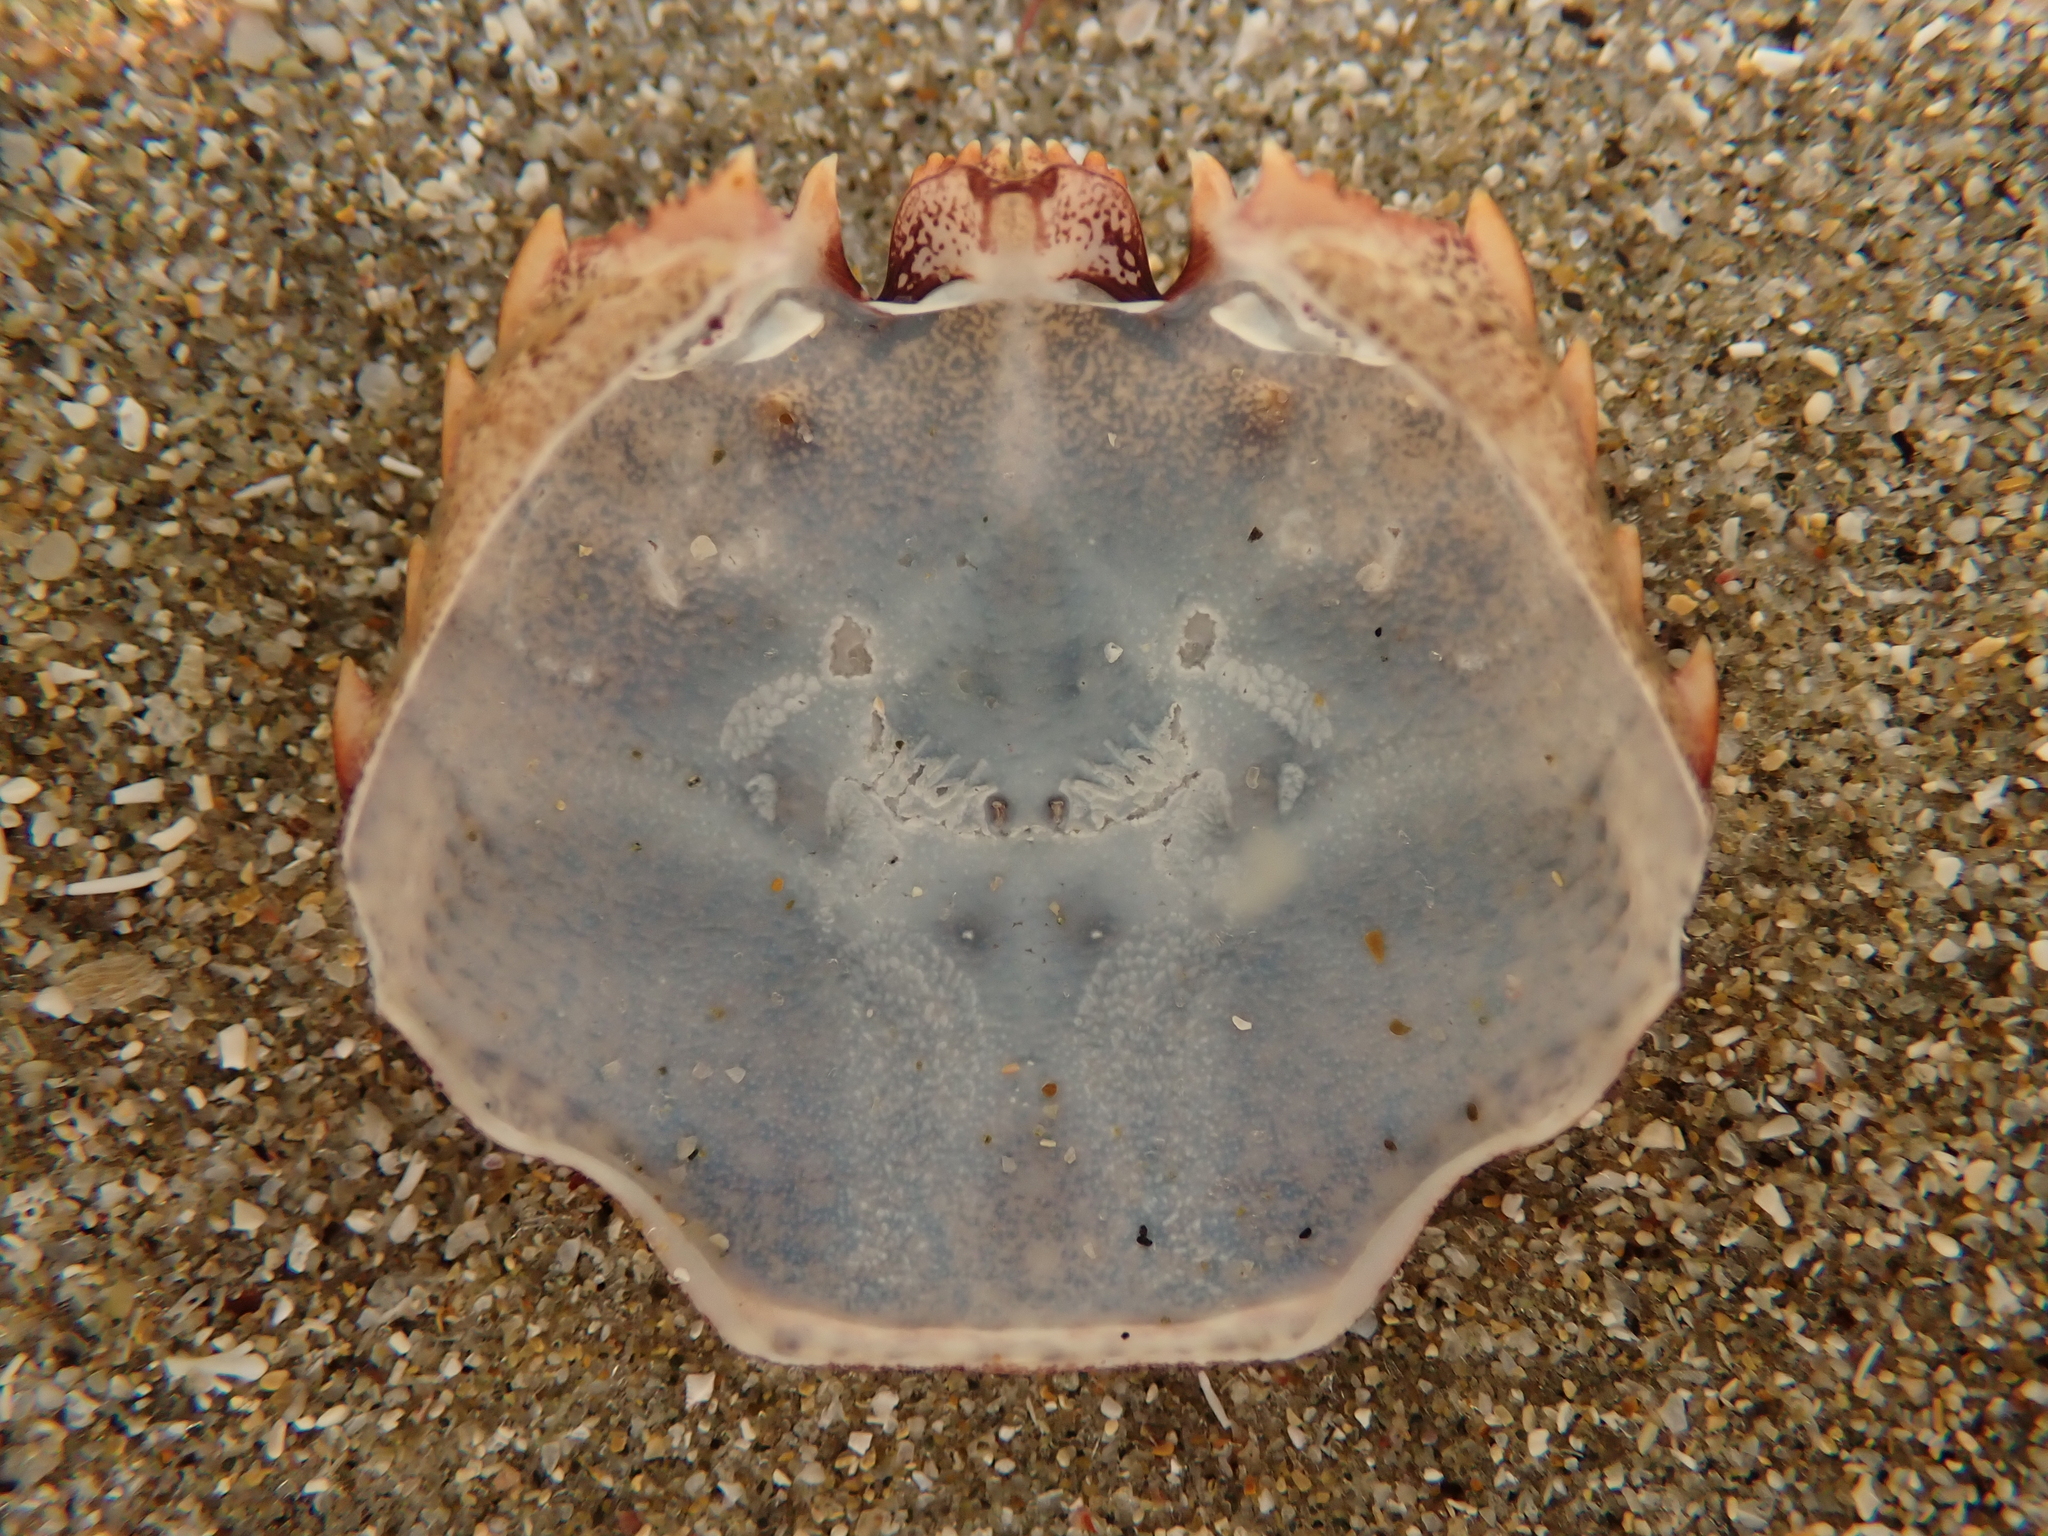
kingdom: Animalia
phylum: Arthropoda
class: Malacostraca
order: Decapoda
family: Plagusiidae
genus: Guinusia
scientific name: Guinusia chabrus
